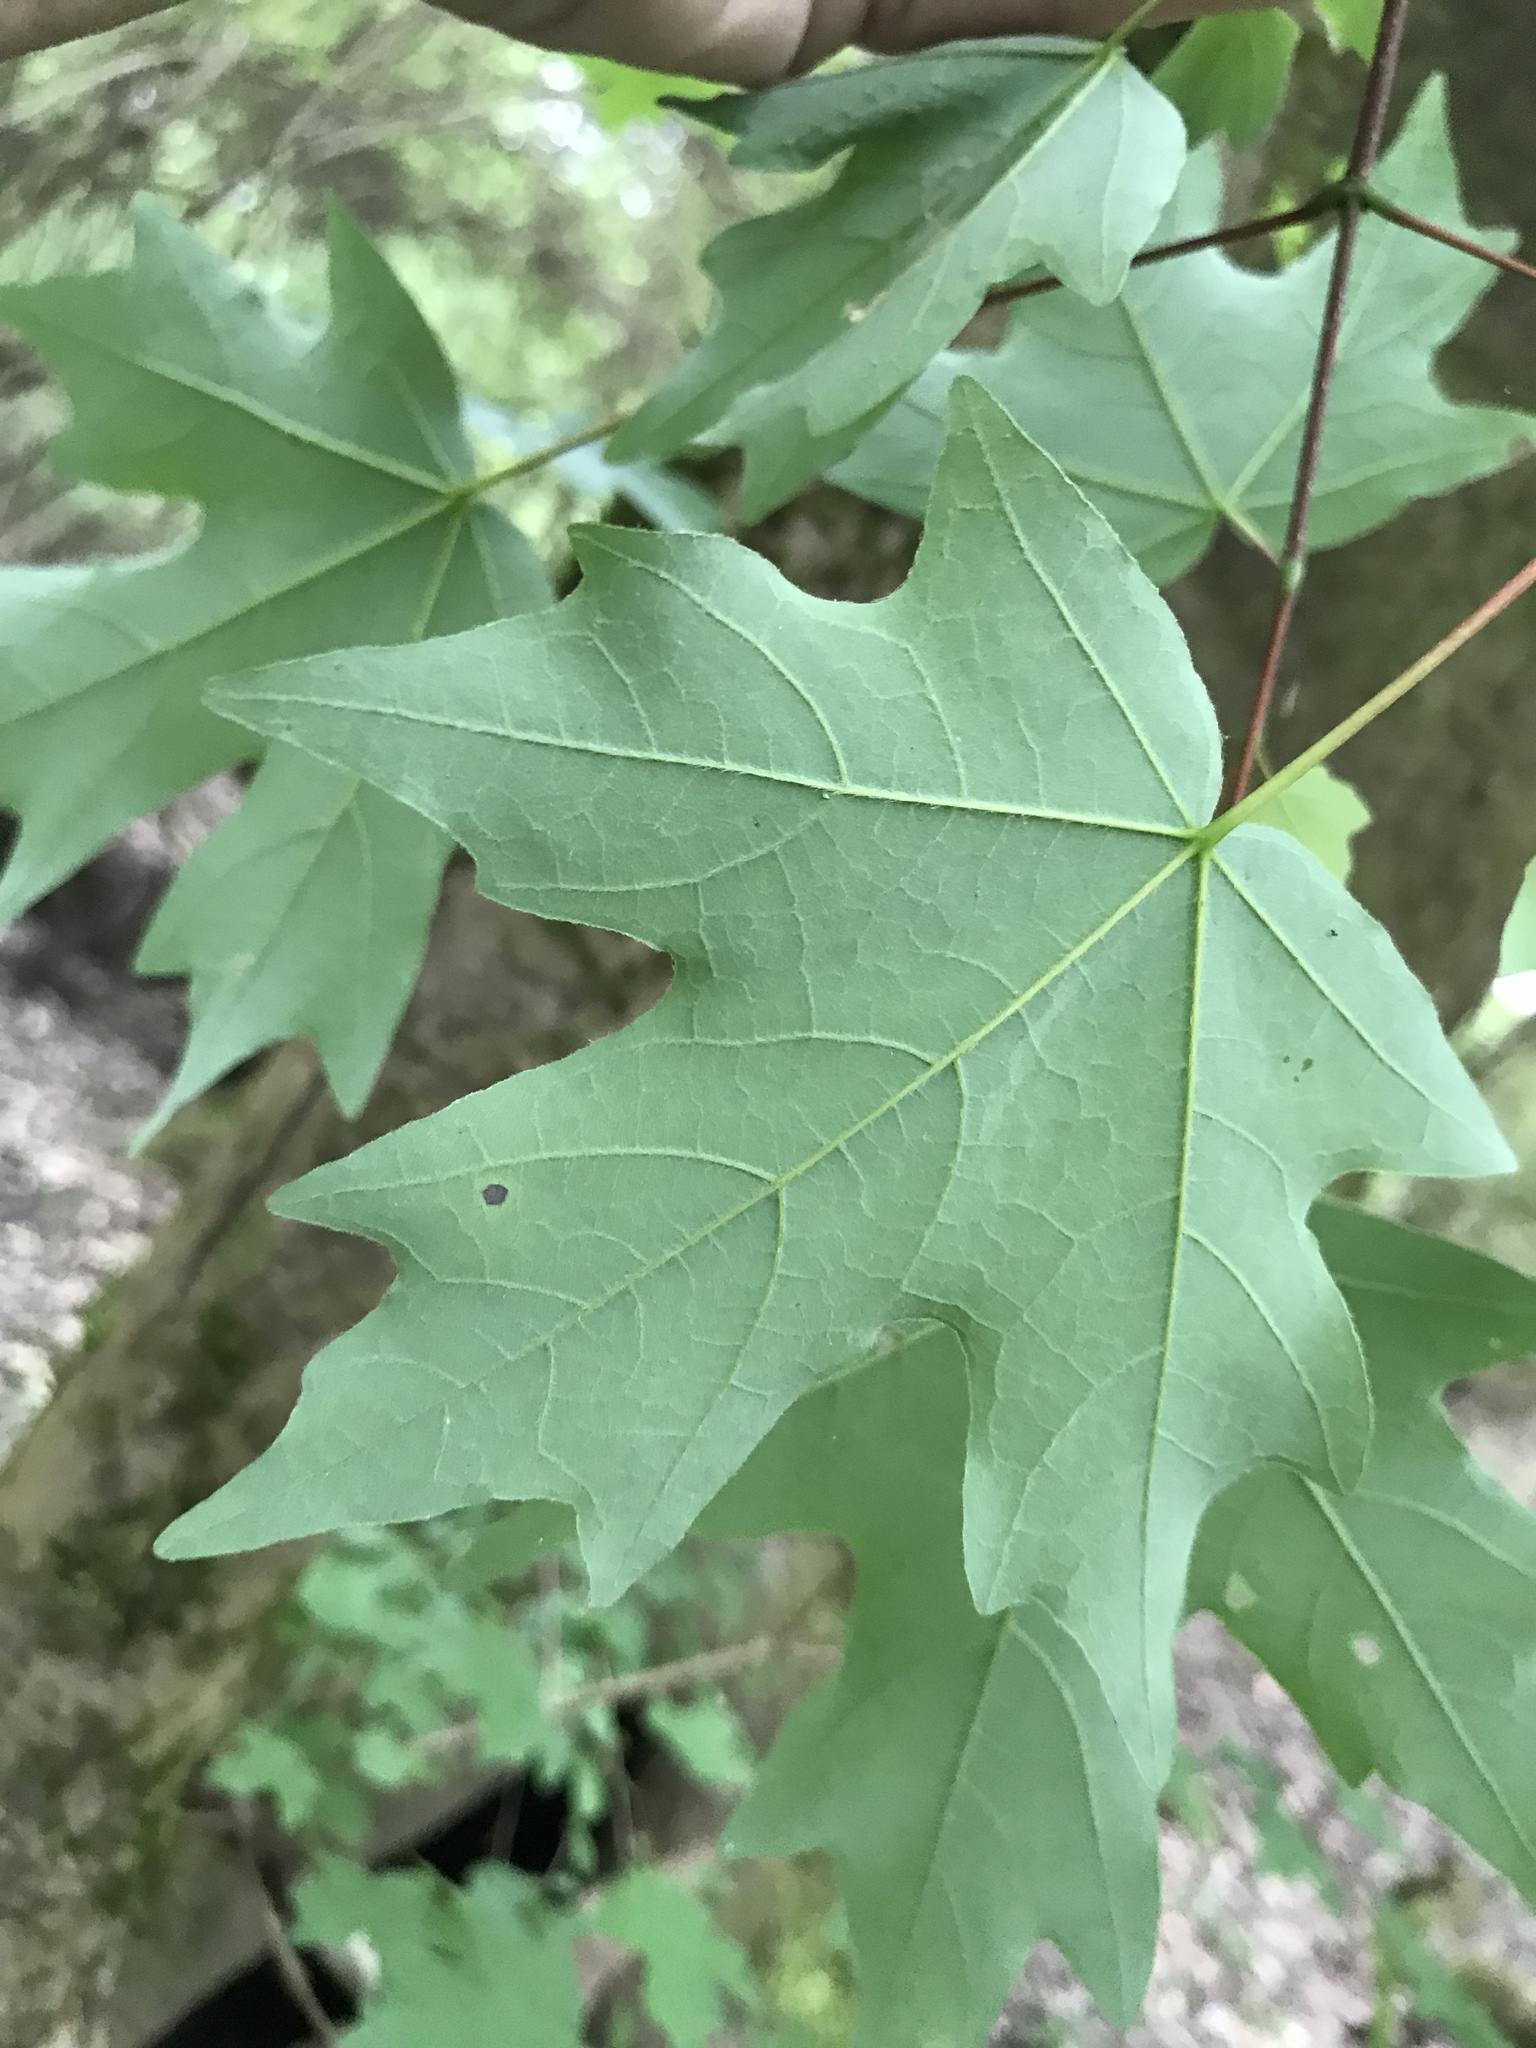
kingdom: Plantae
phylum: Tracheophyta
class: Magnoliopsida
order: Sapindales
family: Sapindaceae
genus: Acer
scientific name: Acer floridanum
